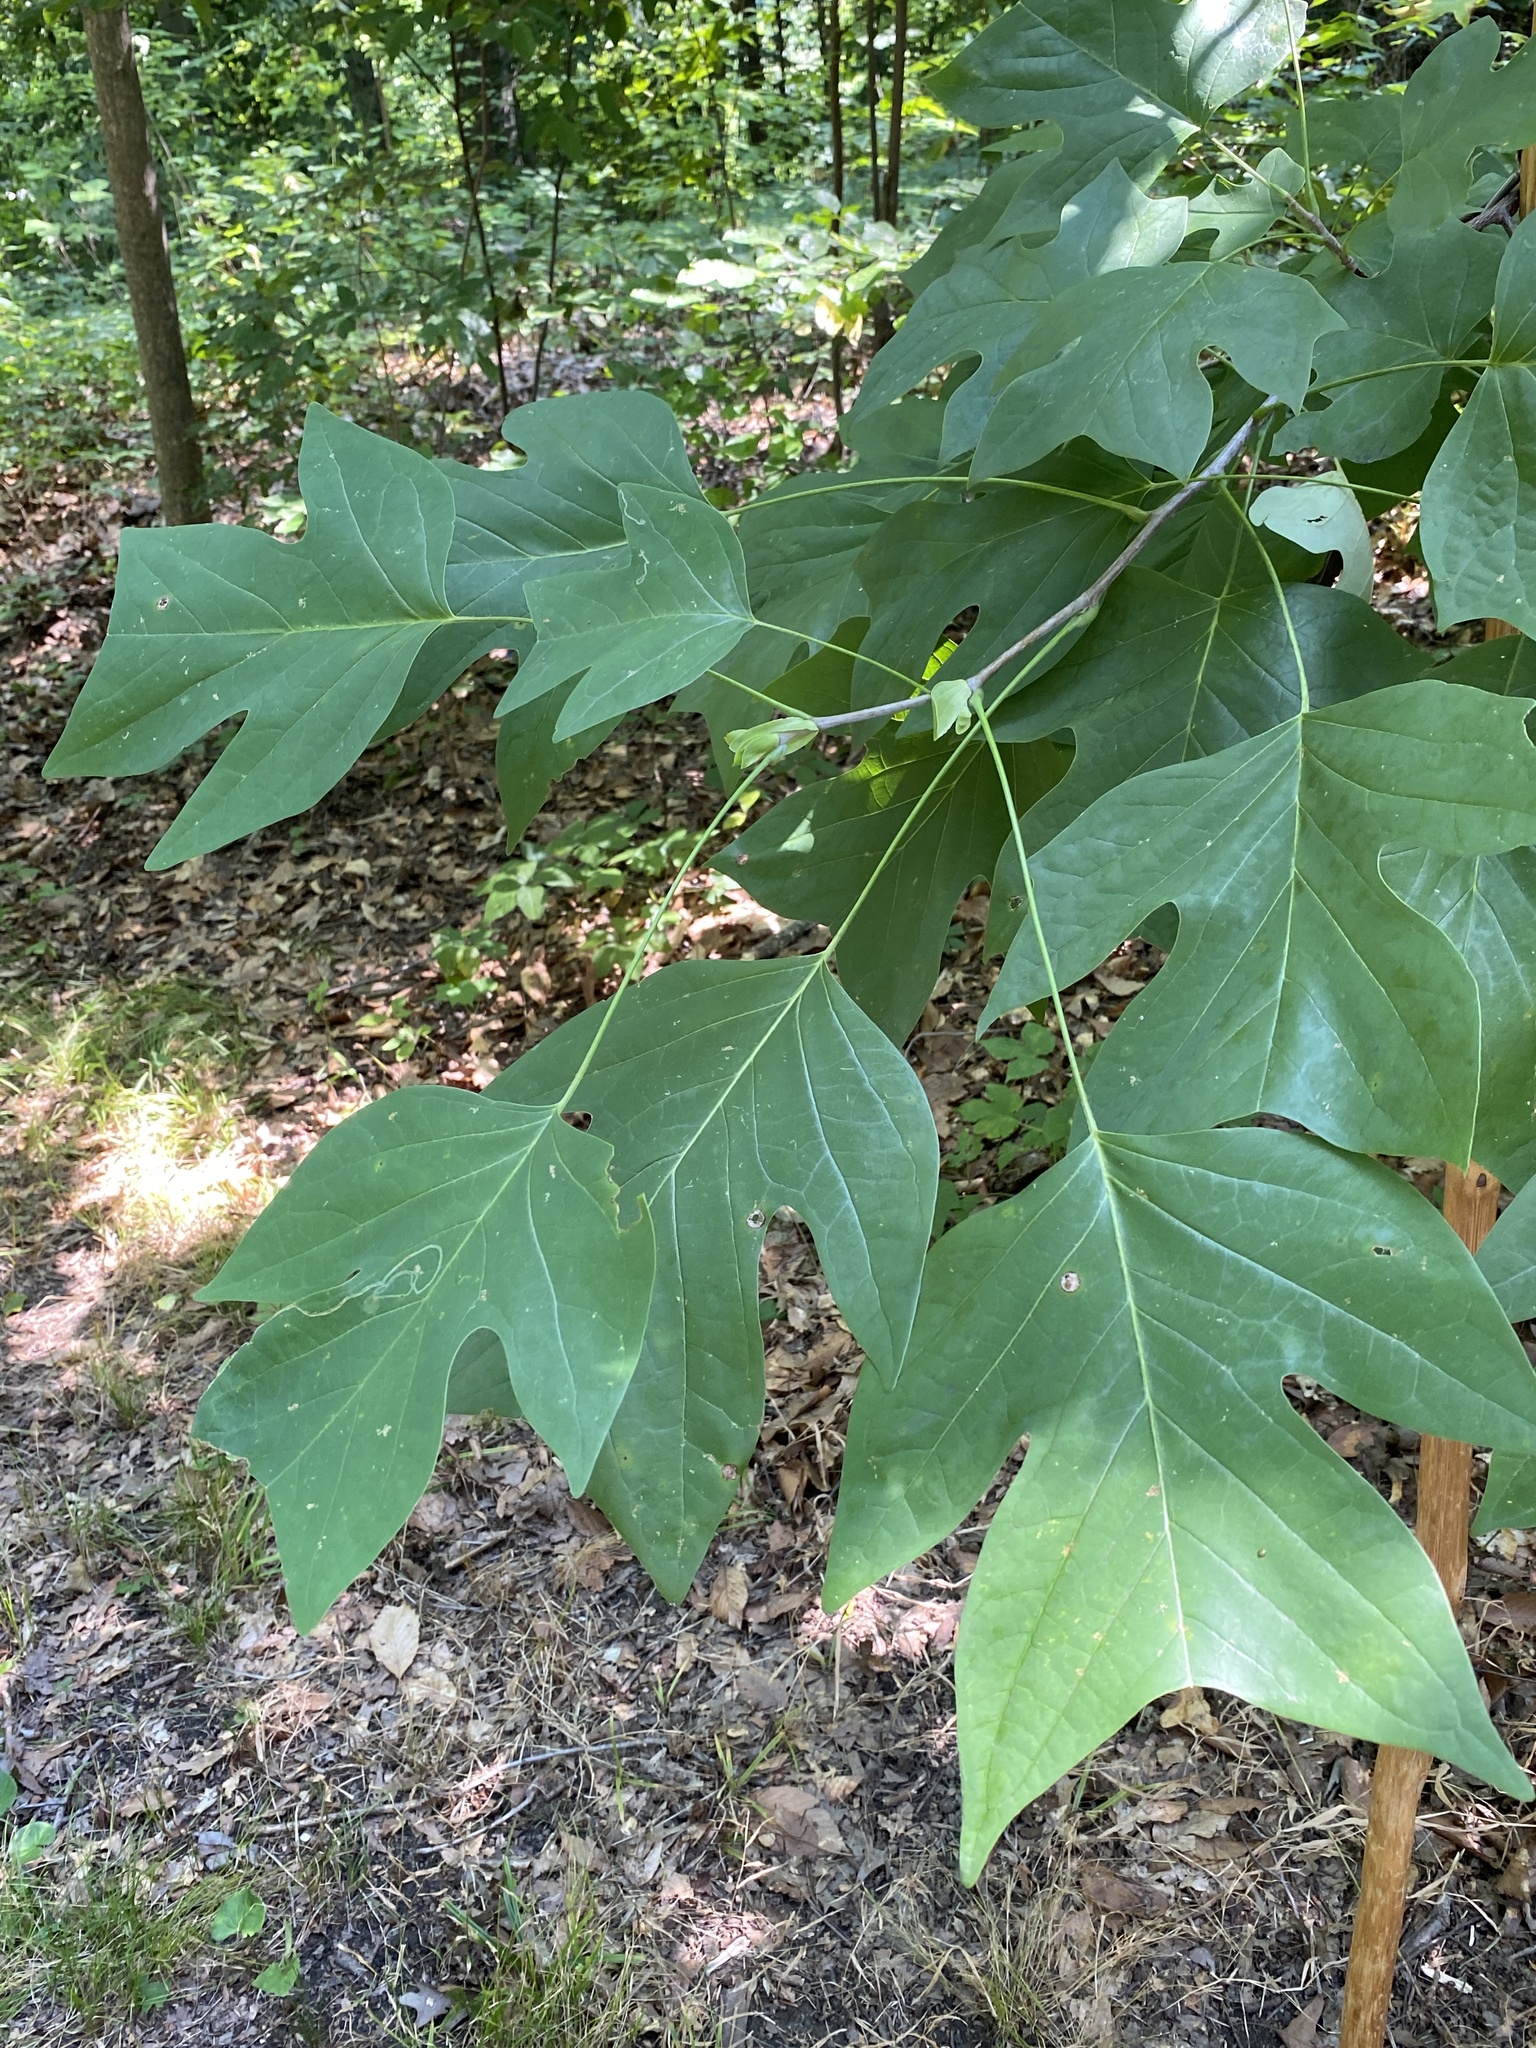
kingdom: Plantae
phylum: Tracheophyta
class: Magnoliopsida
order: Magnoliales
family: Magnoliaceae
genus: Liriodendron
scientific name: Liriodendron tulipifera
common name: Tulip tree
